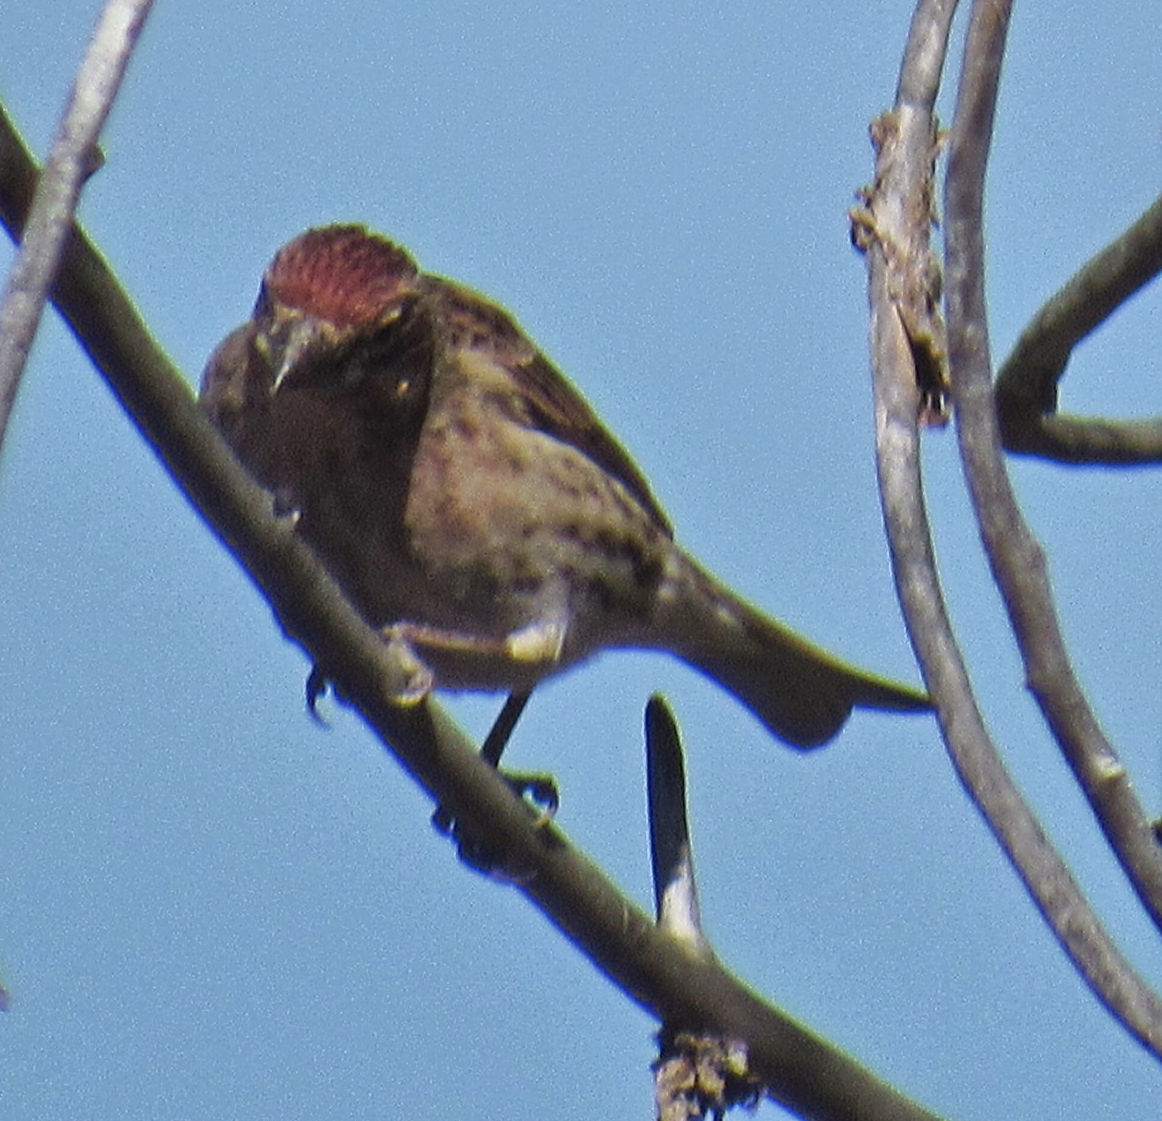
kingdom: Animalia
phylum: Chordata
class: Aves
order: Passeriformes
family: Fringillidae
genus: Haemorhous
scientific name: Haemorhous cassinii
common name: Cassin's finch
